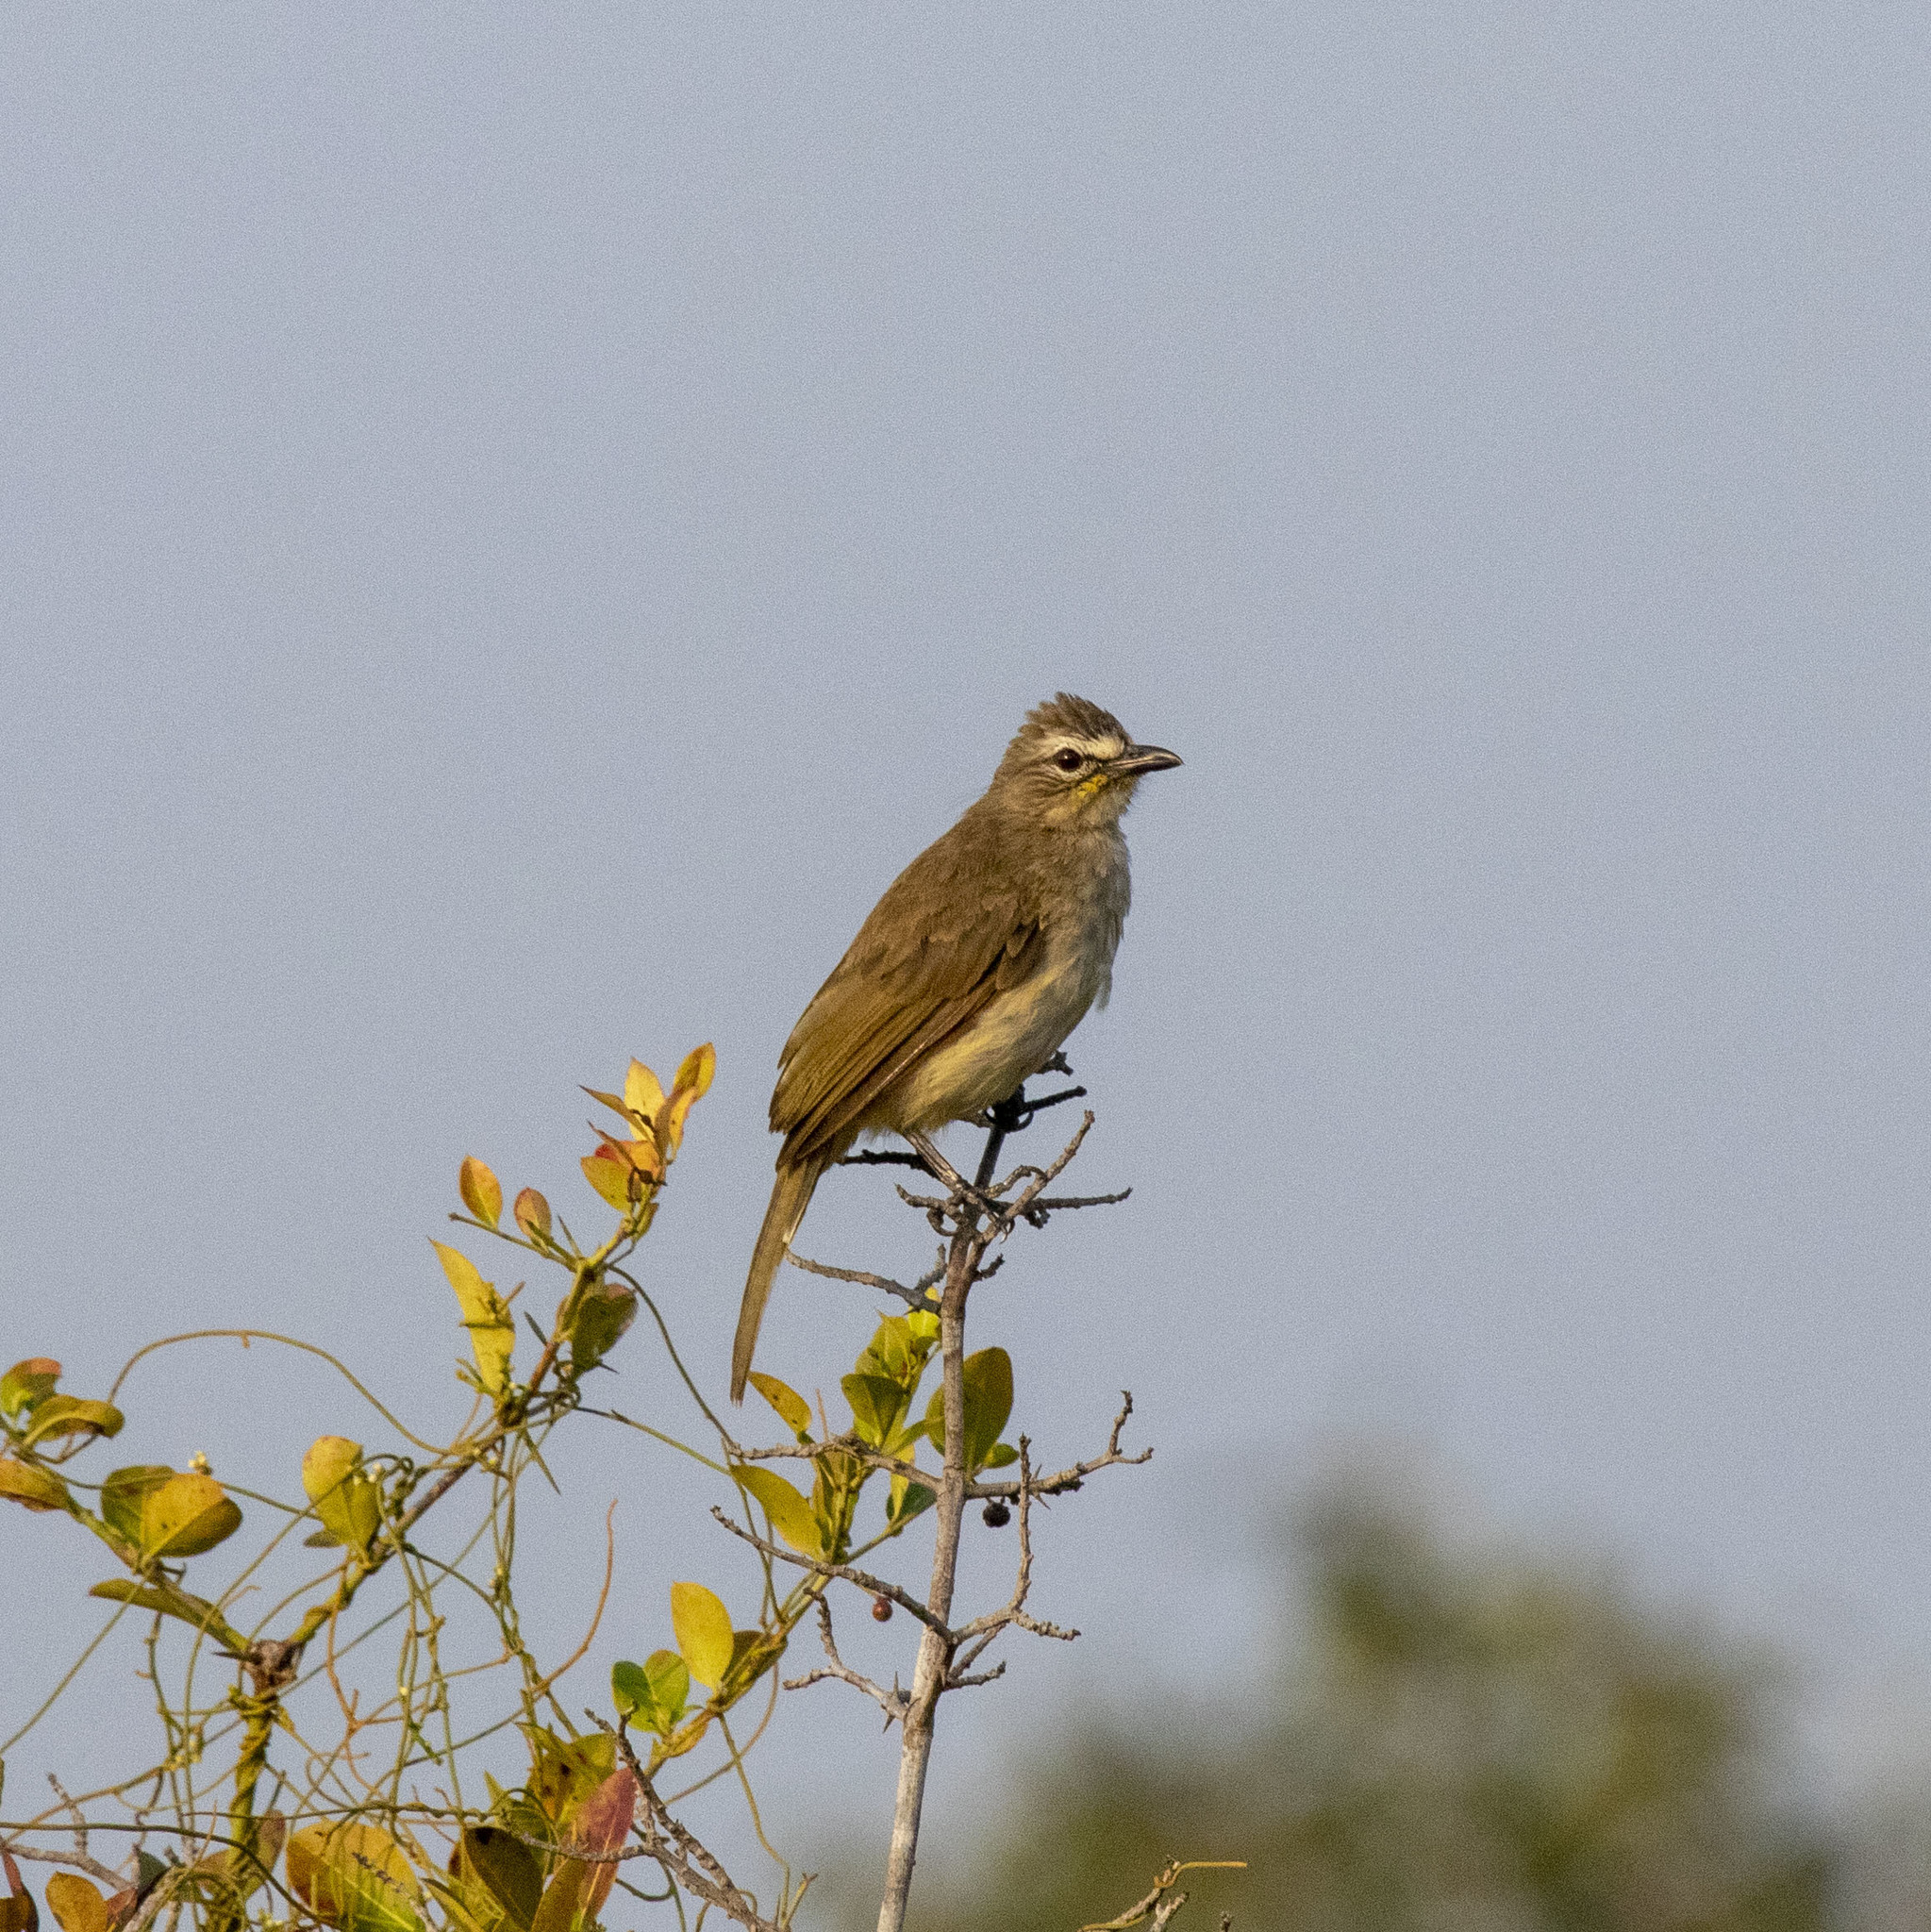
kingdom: Animalia
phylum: Chordata
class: Aves
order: Passeriformes
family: Pycnonotidae
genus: Pycnonotus
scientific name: Pycnonotus luteolus
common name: White-browed bulbul
